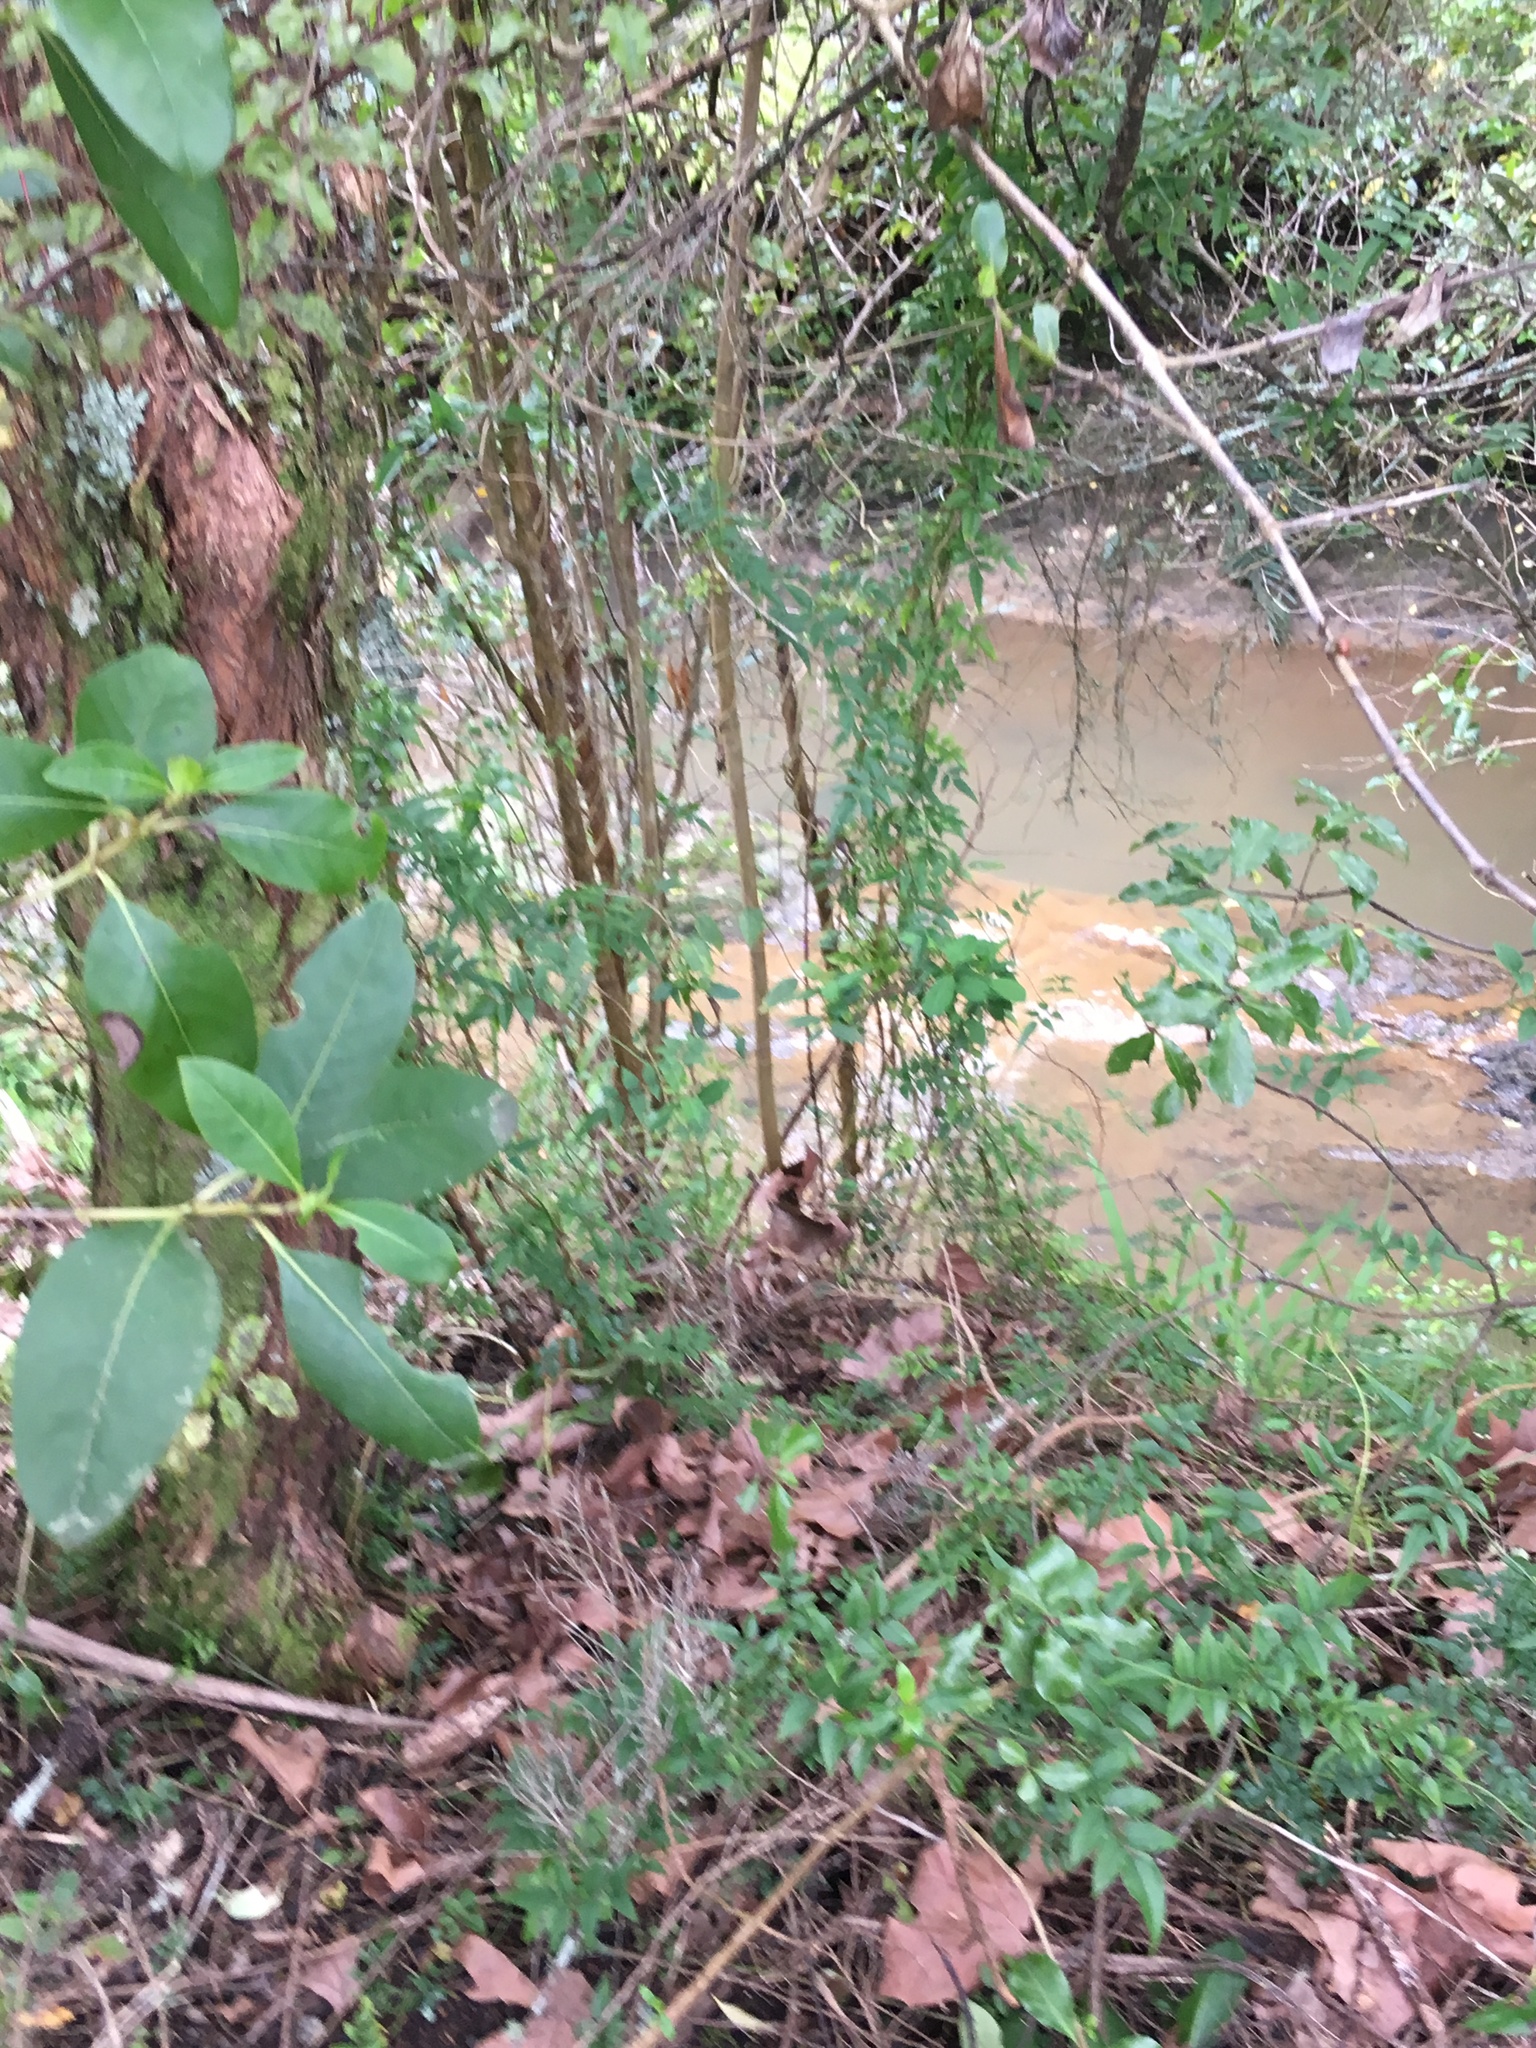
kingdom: Plantae
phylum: Tracheophyta
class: Magnoliopsida
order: Lamiales
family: Oleaceae
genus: Jasminum
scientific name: Jasminum polyanthum
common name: Pink jasmine
